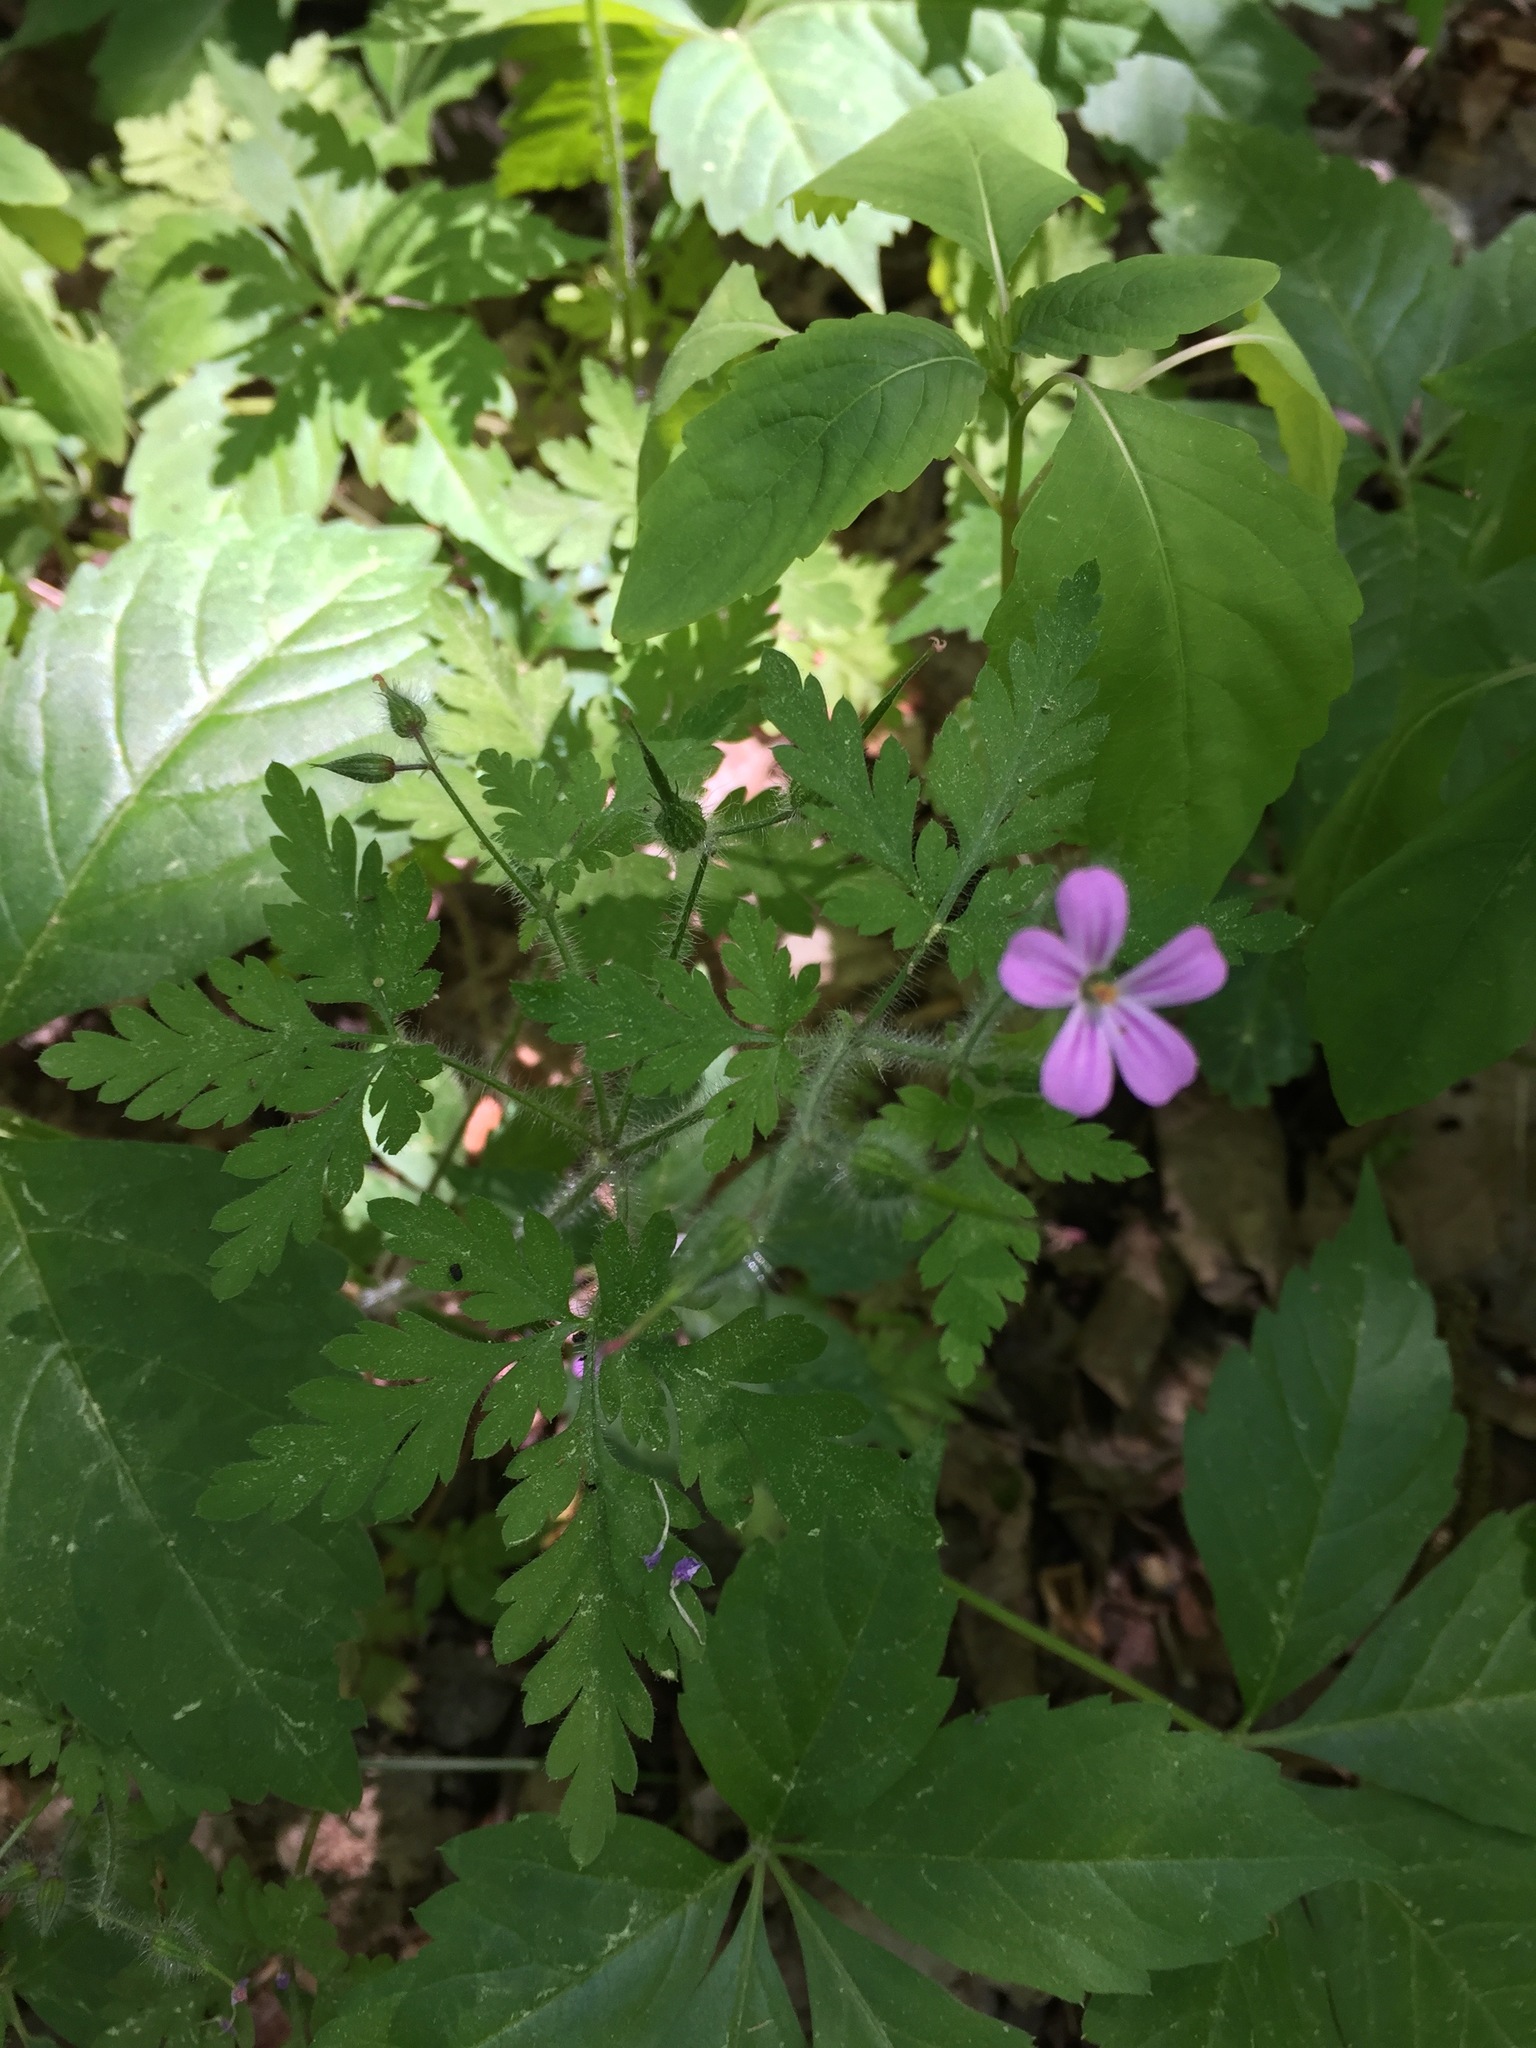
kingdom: Plantae
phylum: Tracheophyta
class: Magnoliopsida
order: Geraniales
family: Geraniaceae
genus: Geranium
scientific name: Geranium robertianum
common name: Herb-robert
